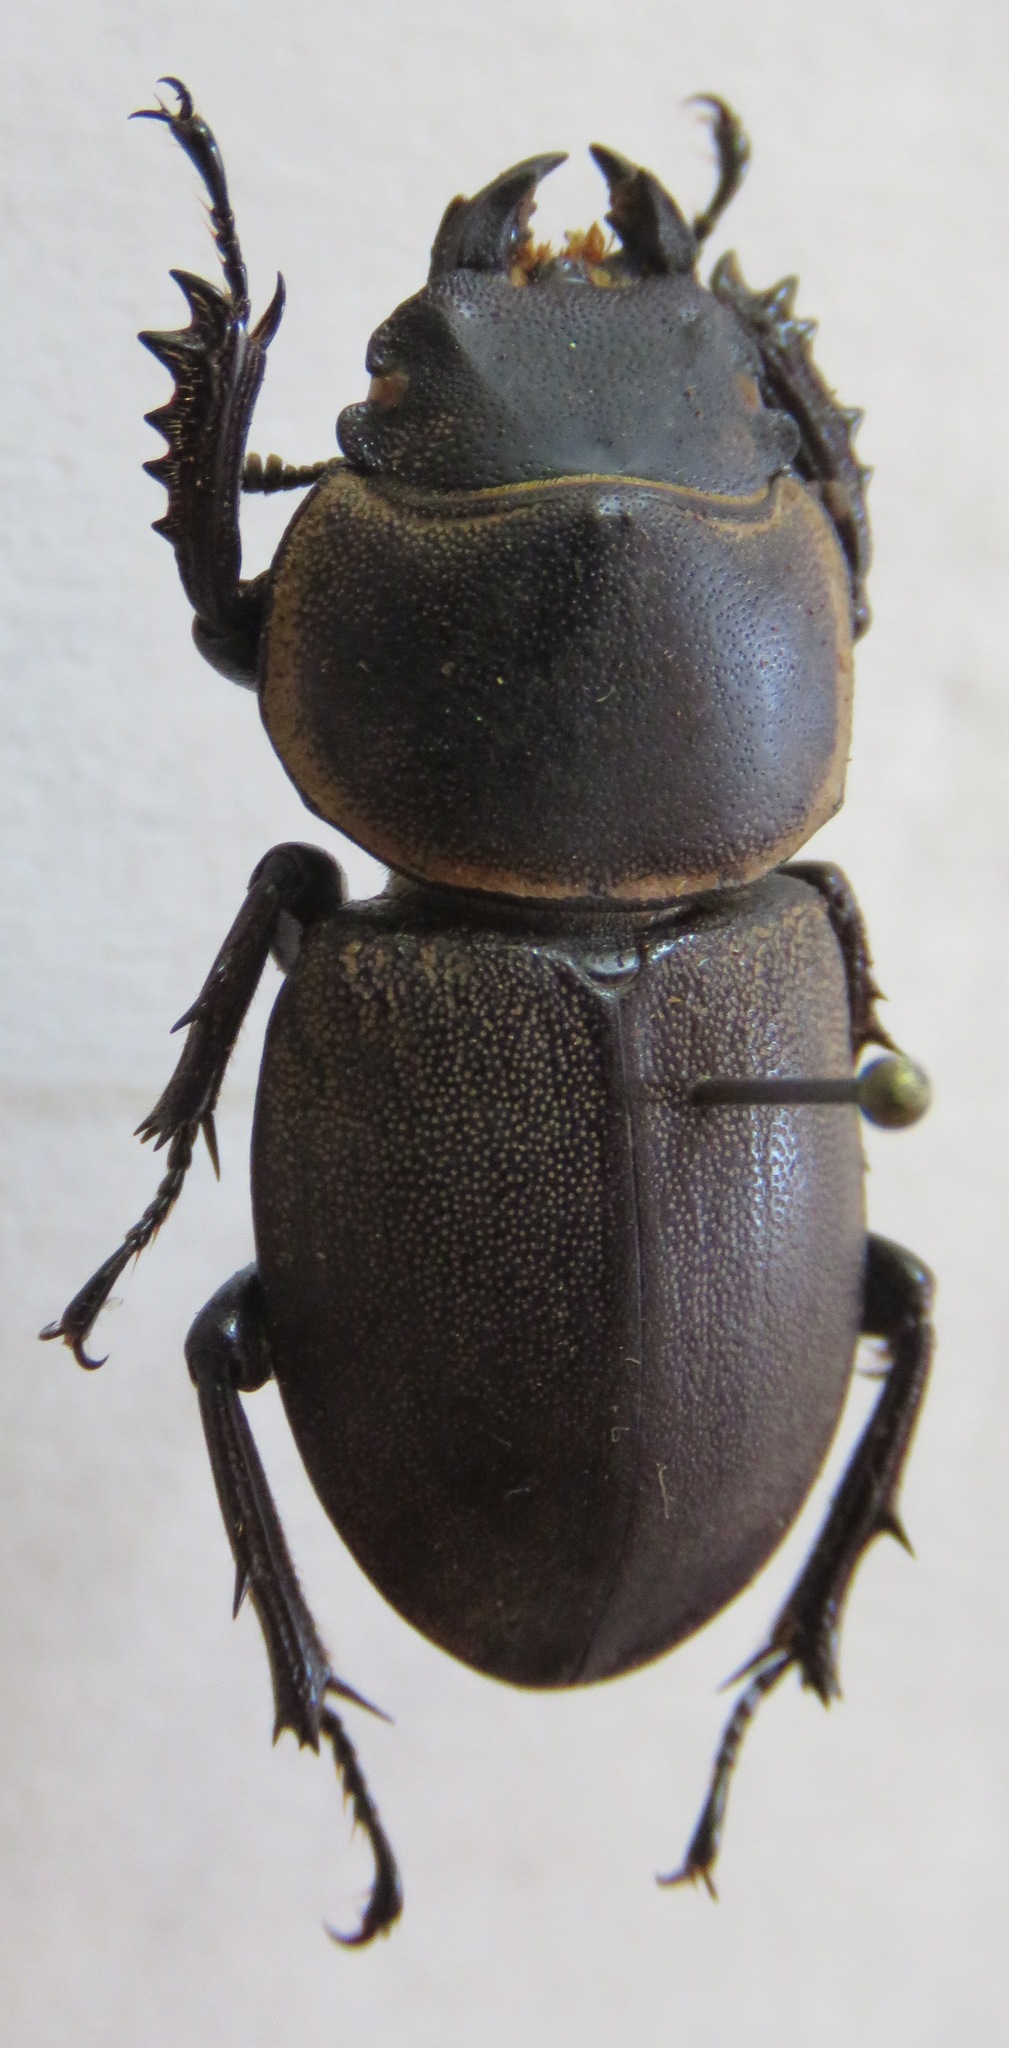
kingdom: Animalia
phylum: Arthropoda
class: Insecta
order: Coleoptera
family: Lucanidae
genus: Apterodorcus
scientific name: Apterodorcus bacchus
